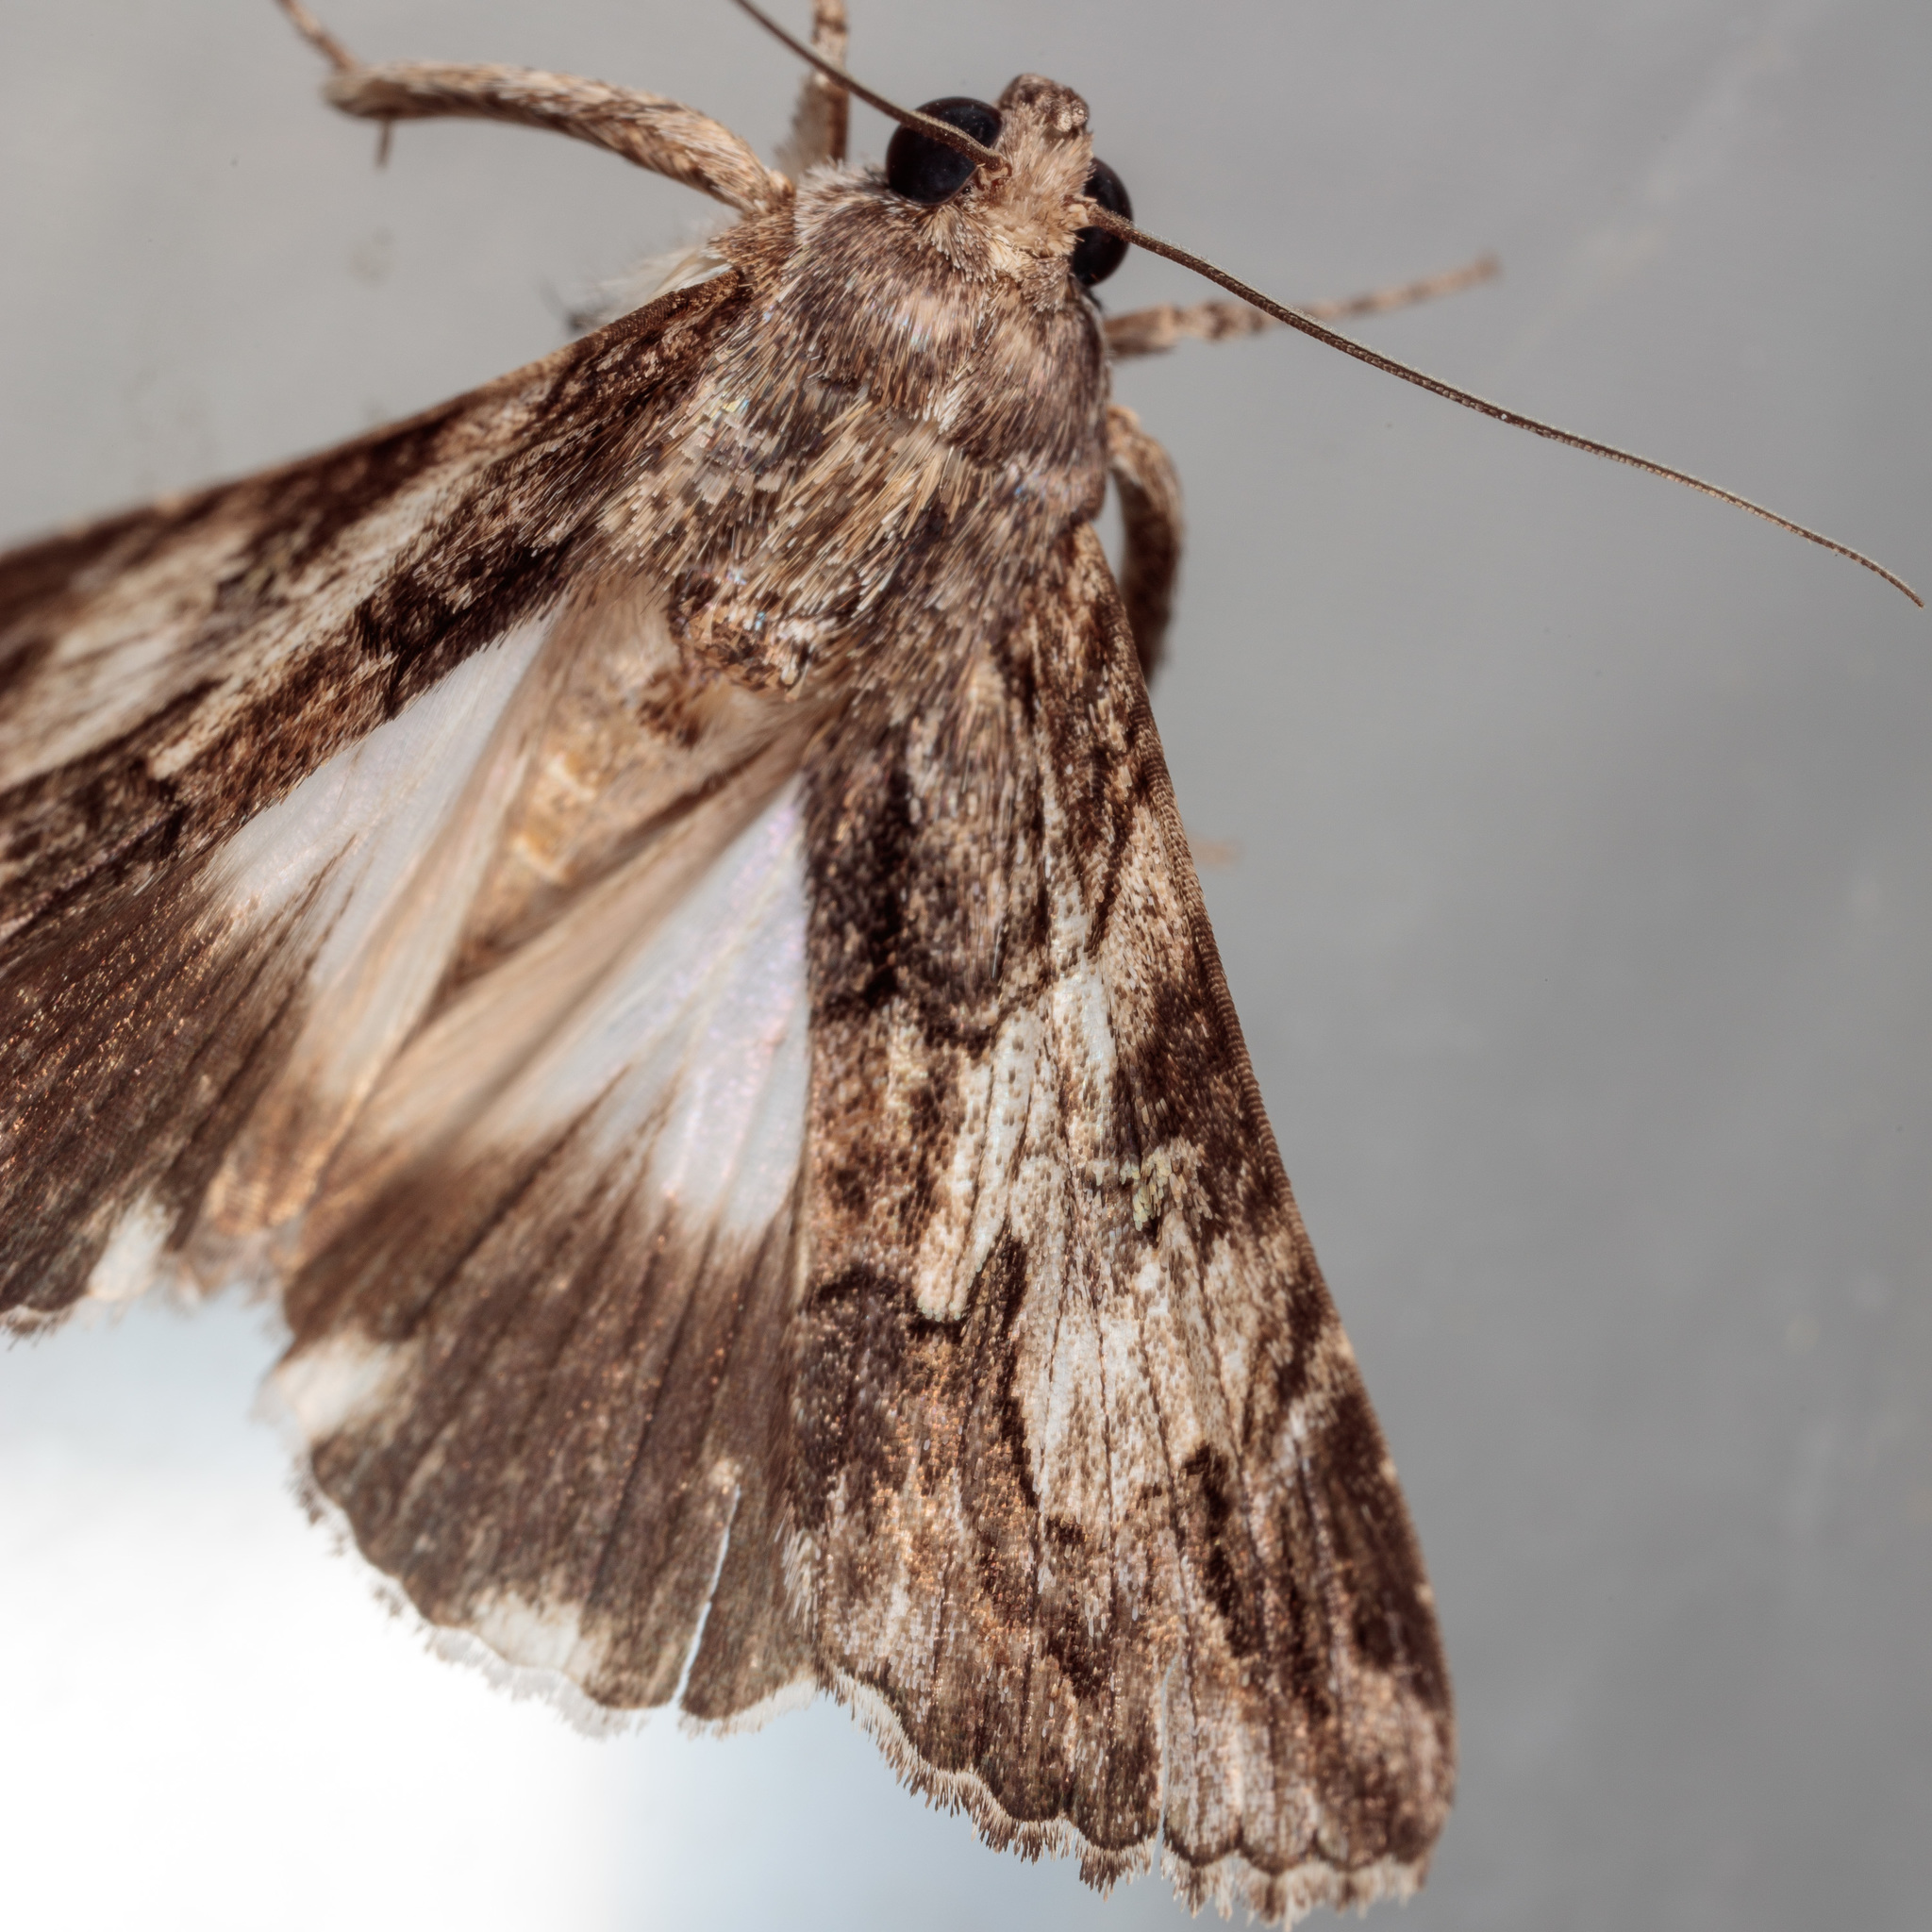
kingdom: Animalia
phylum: Arthropoda
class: Insecta
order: Lepidoptera
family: Erebidae
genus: Melipotis
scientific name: Melipotis jucunda
